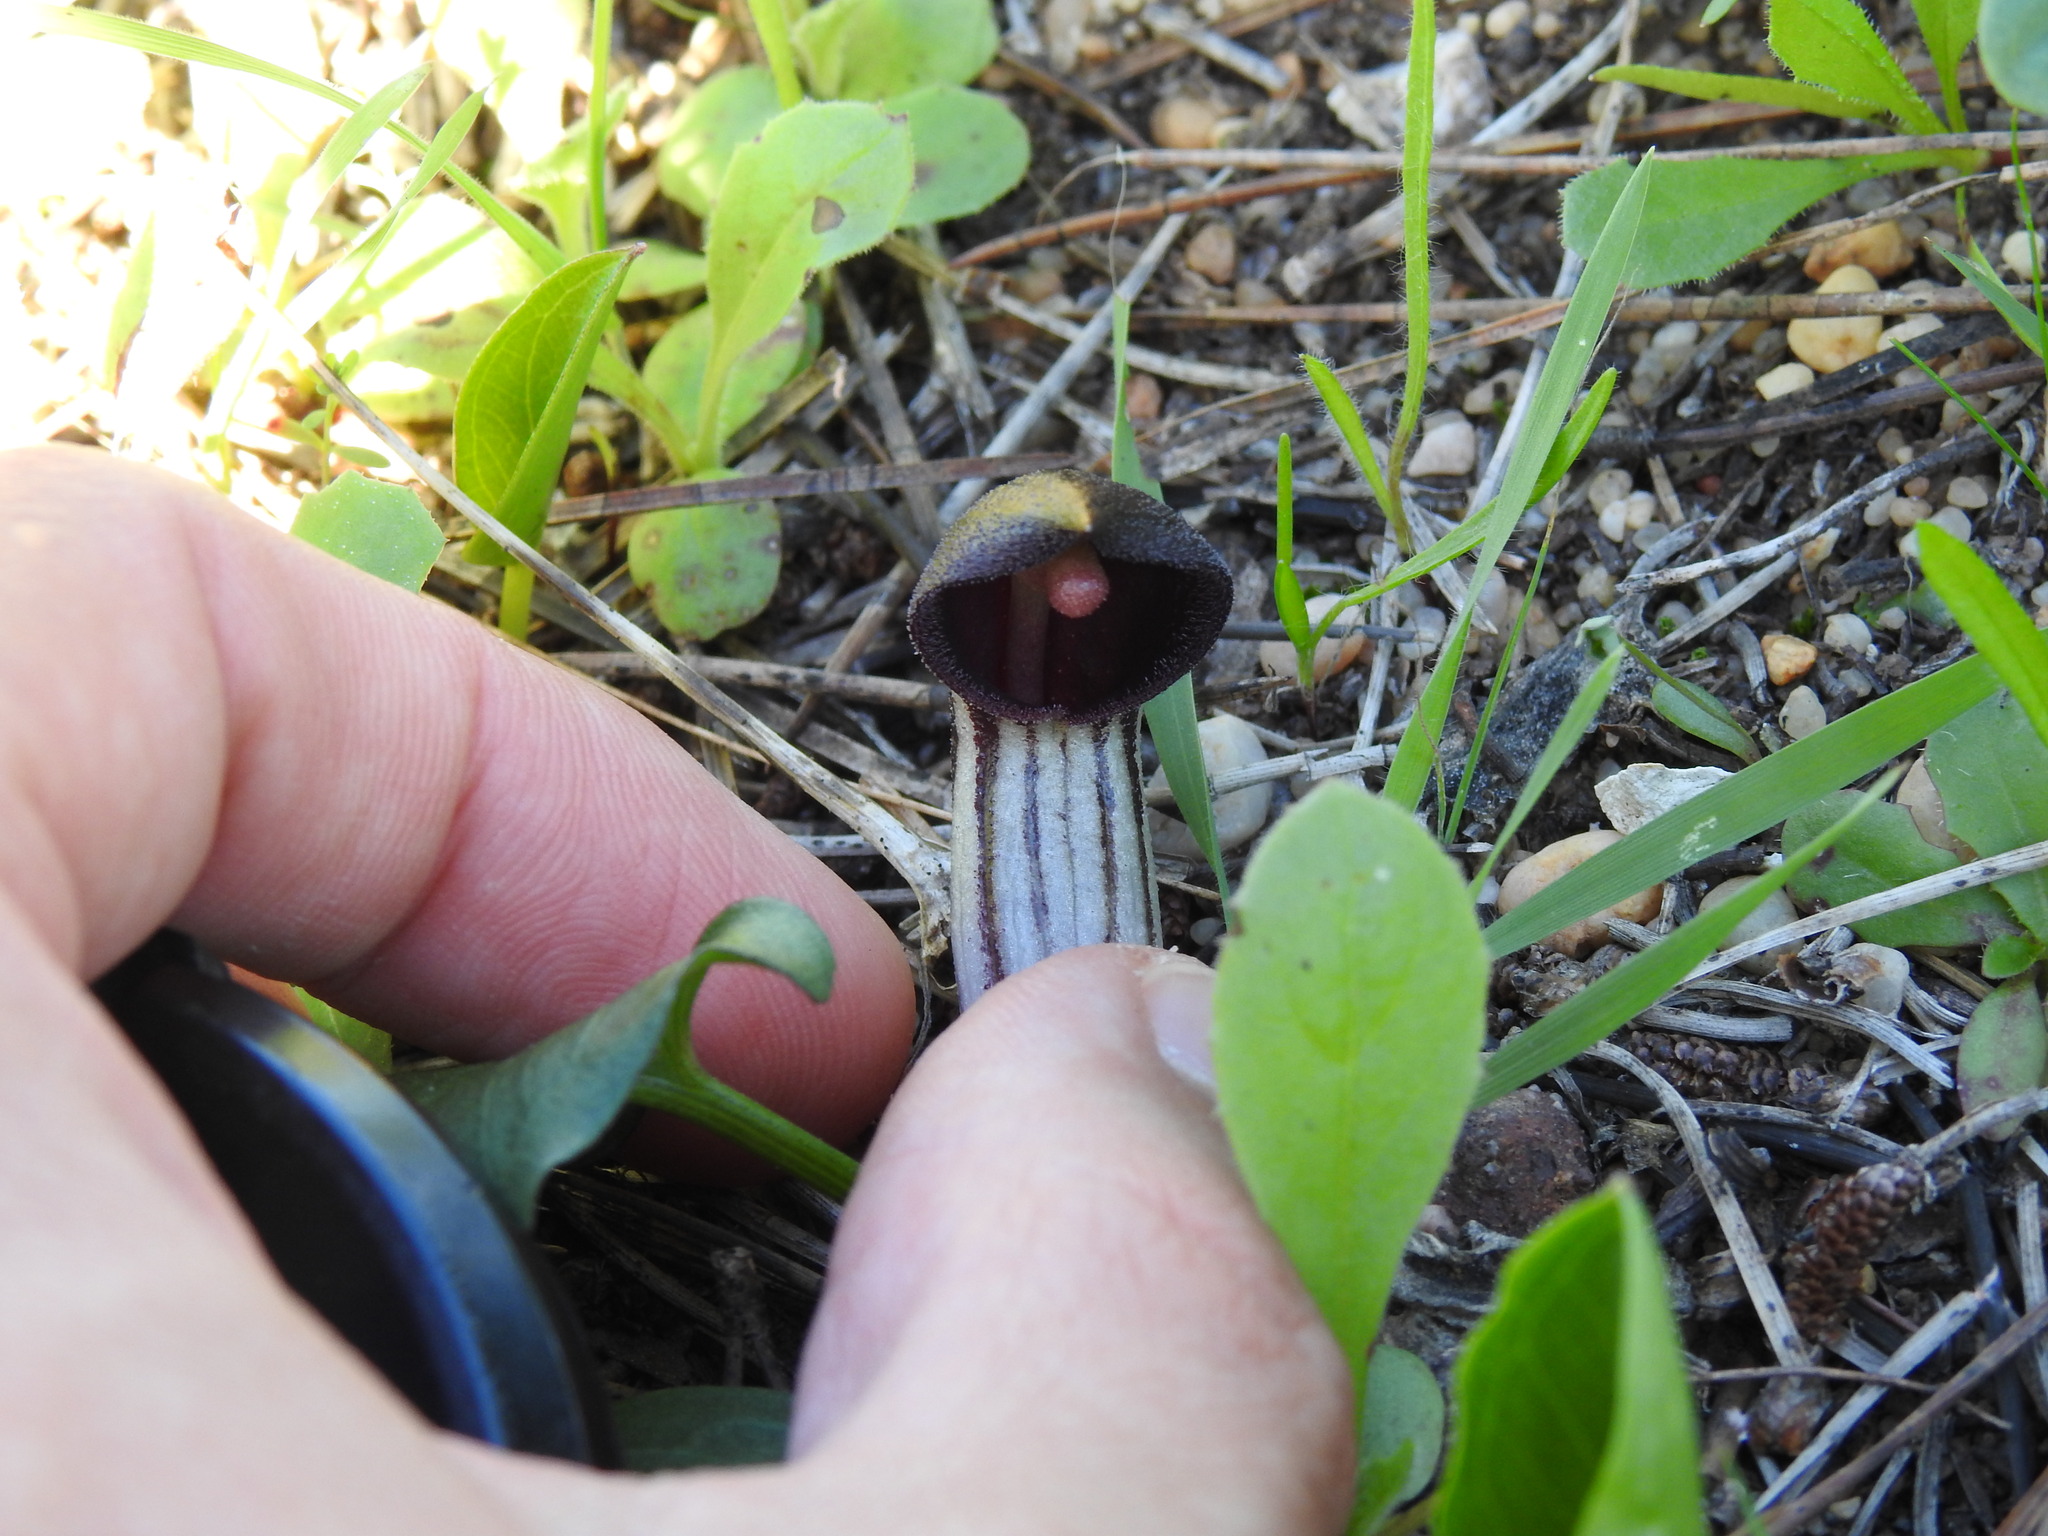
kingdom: Plantae
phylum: Tracheophyta
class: Liliopsida
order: Alismatales
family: Araceae
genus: Arisarum
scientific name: Arisarum simorrhinum
